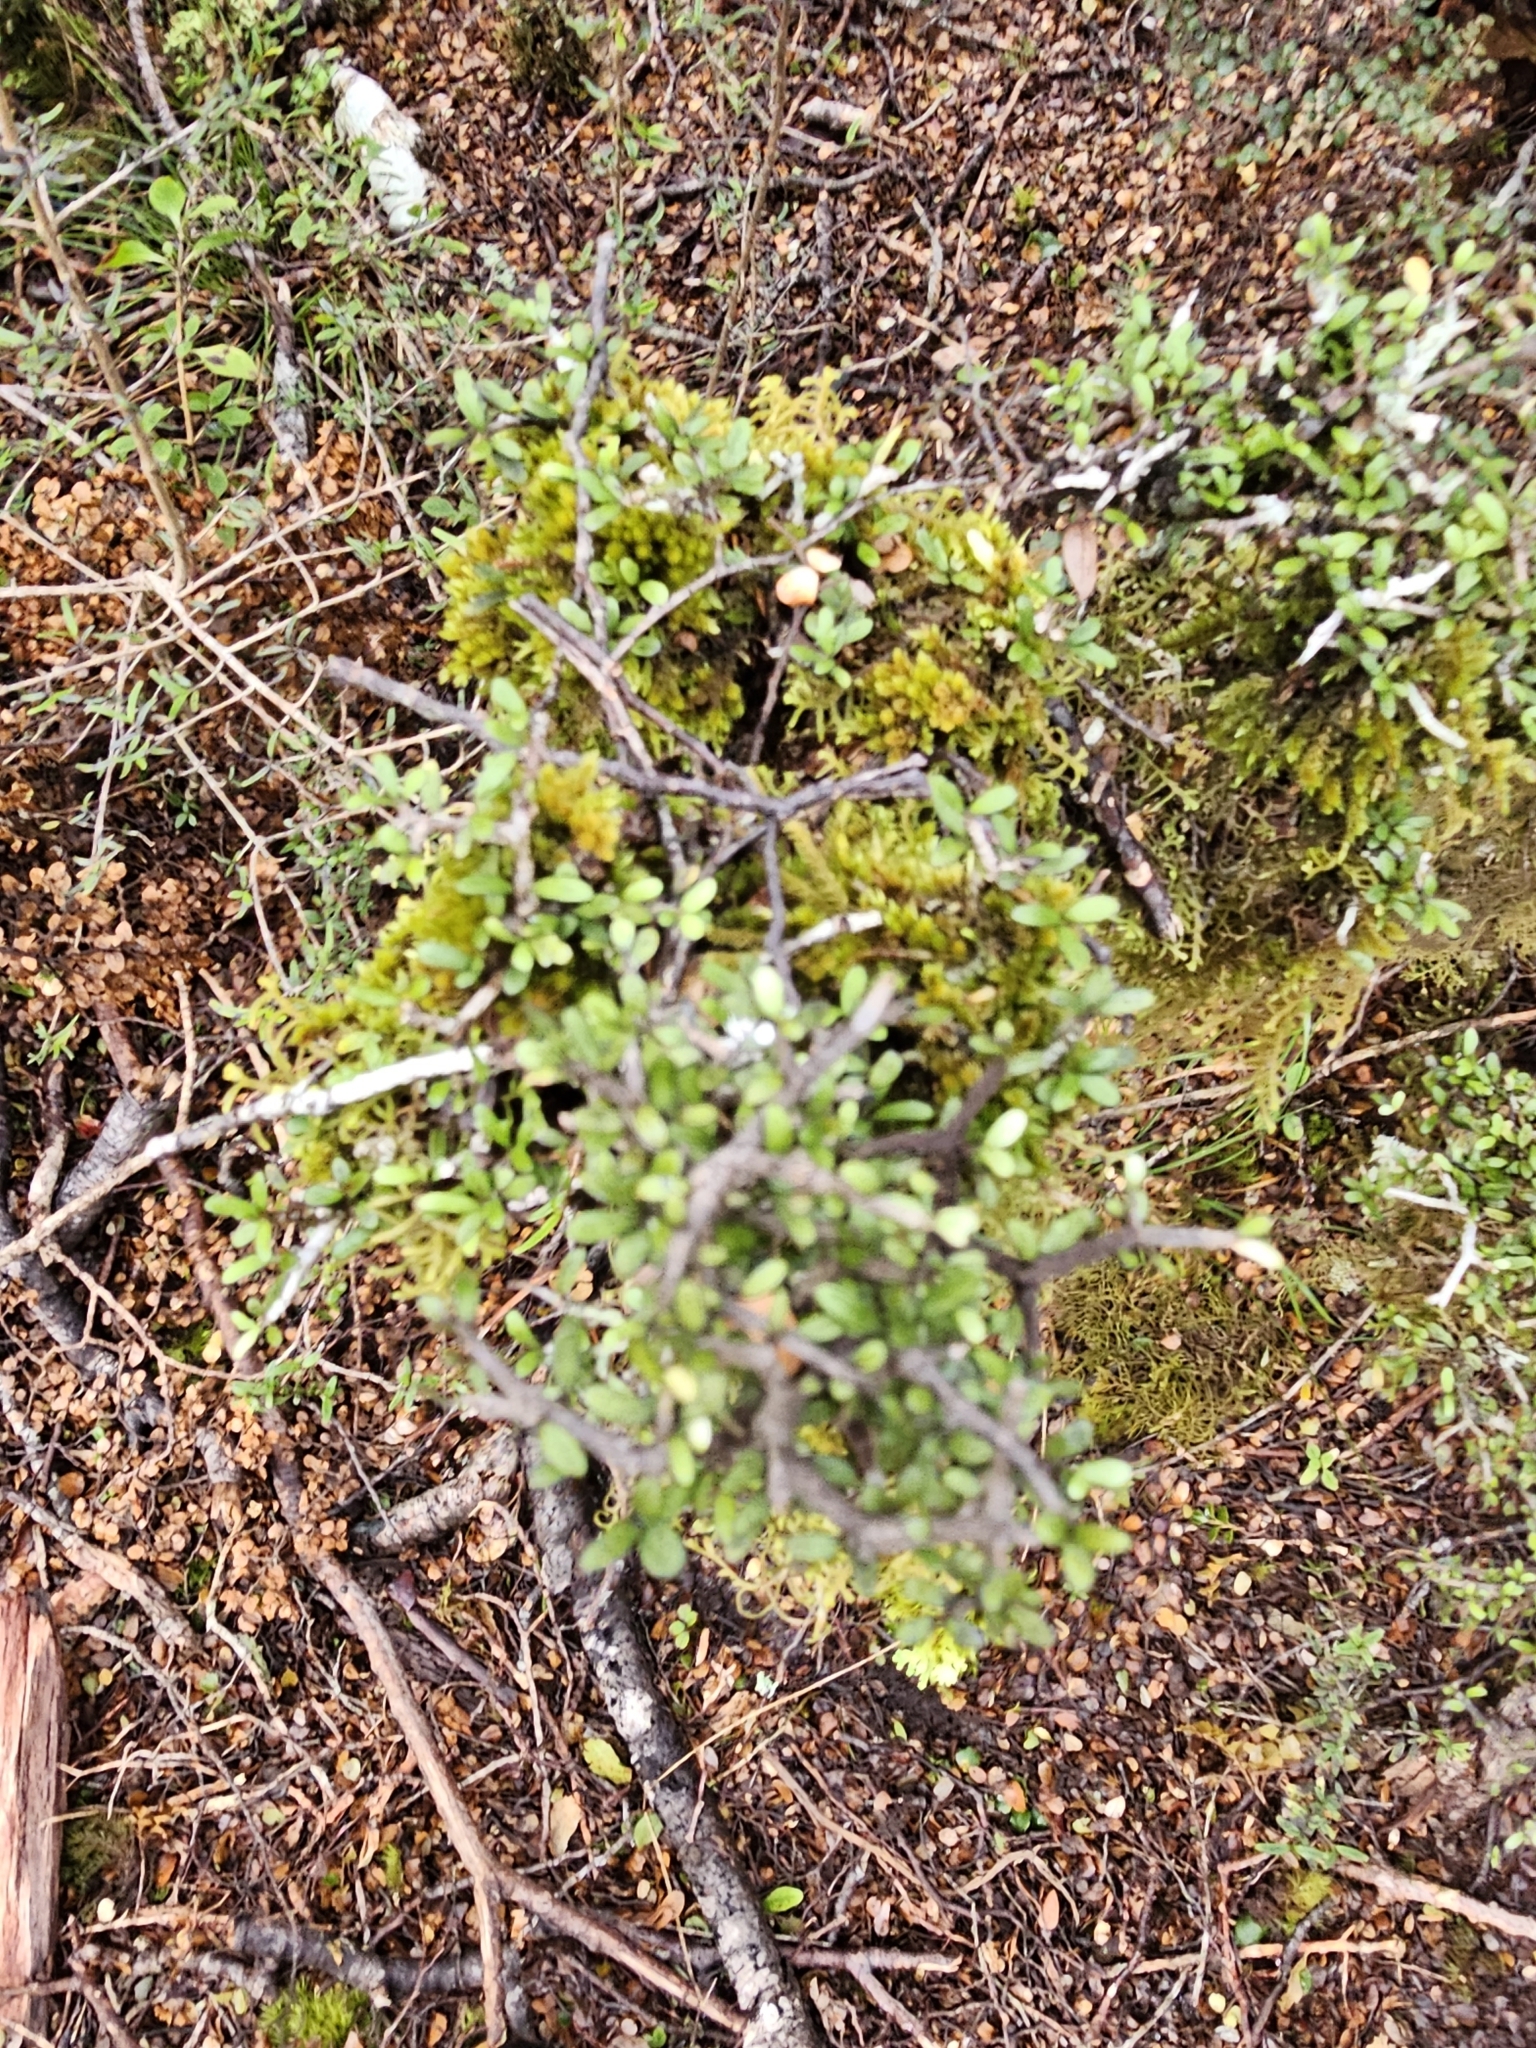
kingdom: Plantae
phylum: Tracheophyta
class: Magnoliopsida
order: Apiales
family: Pittosporaceae
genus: Pittosporum
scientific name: Pittosporum rigidum
